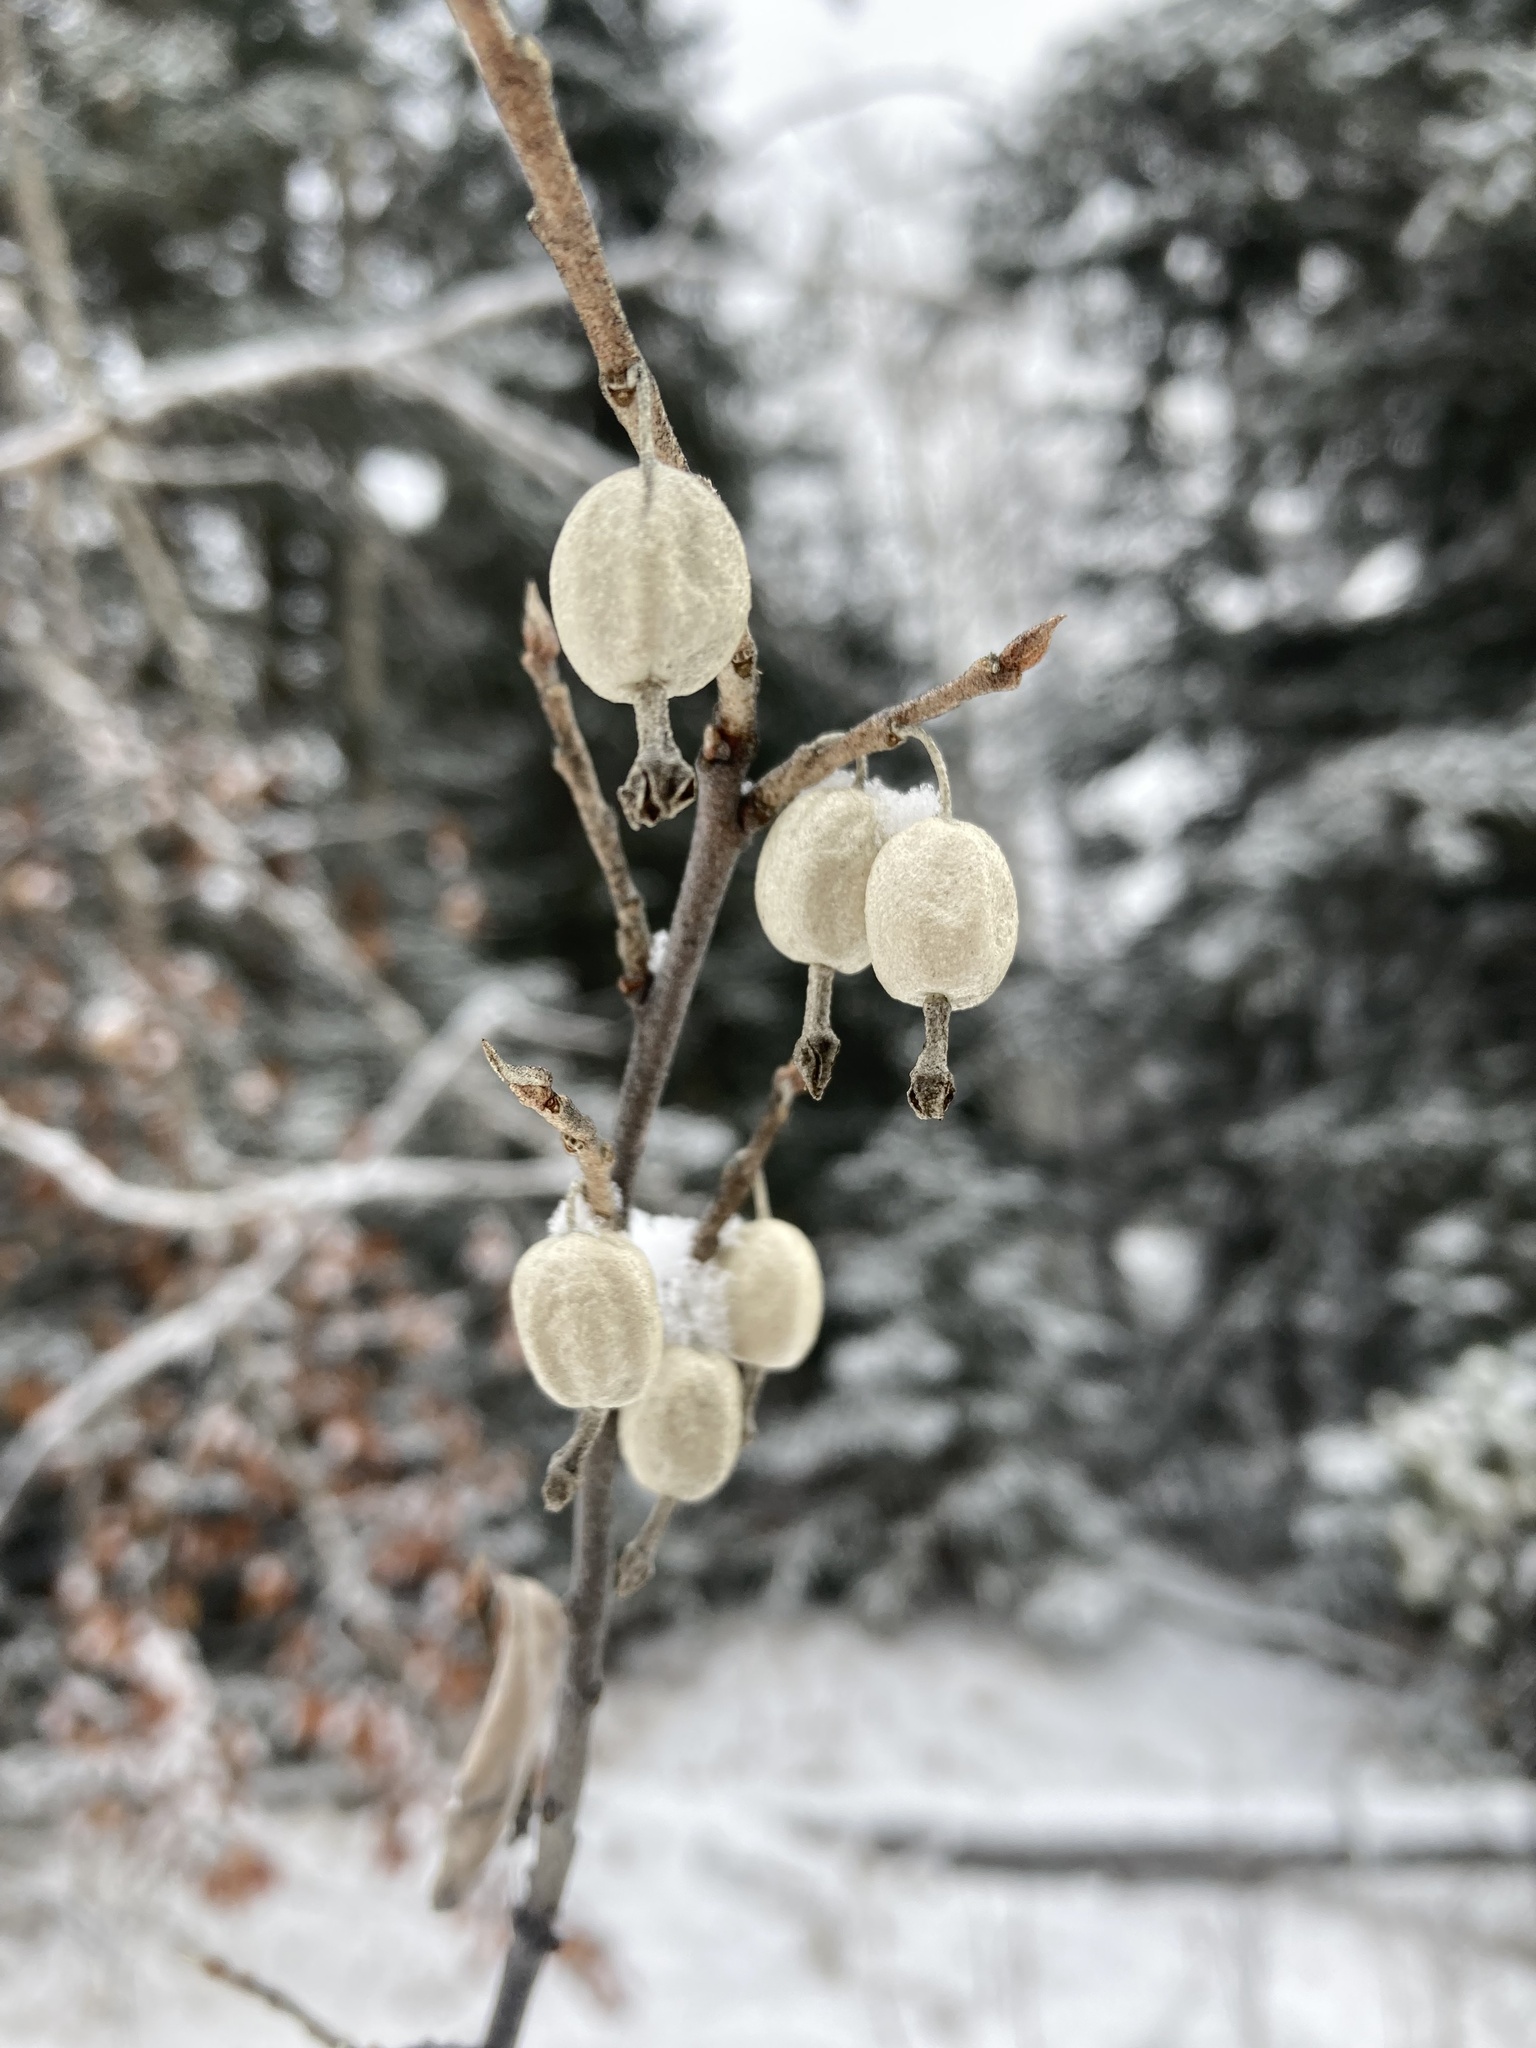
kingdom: Plantae
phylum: Tracheophyta
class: Magnoliopsida
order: Rosales
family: Elaeagnaceae
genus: Elaeagnus
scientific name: Elaeagnus commutata
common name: Silverberry
